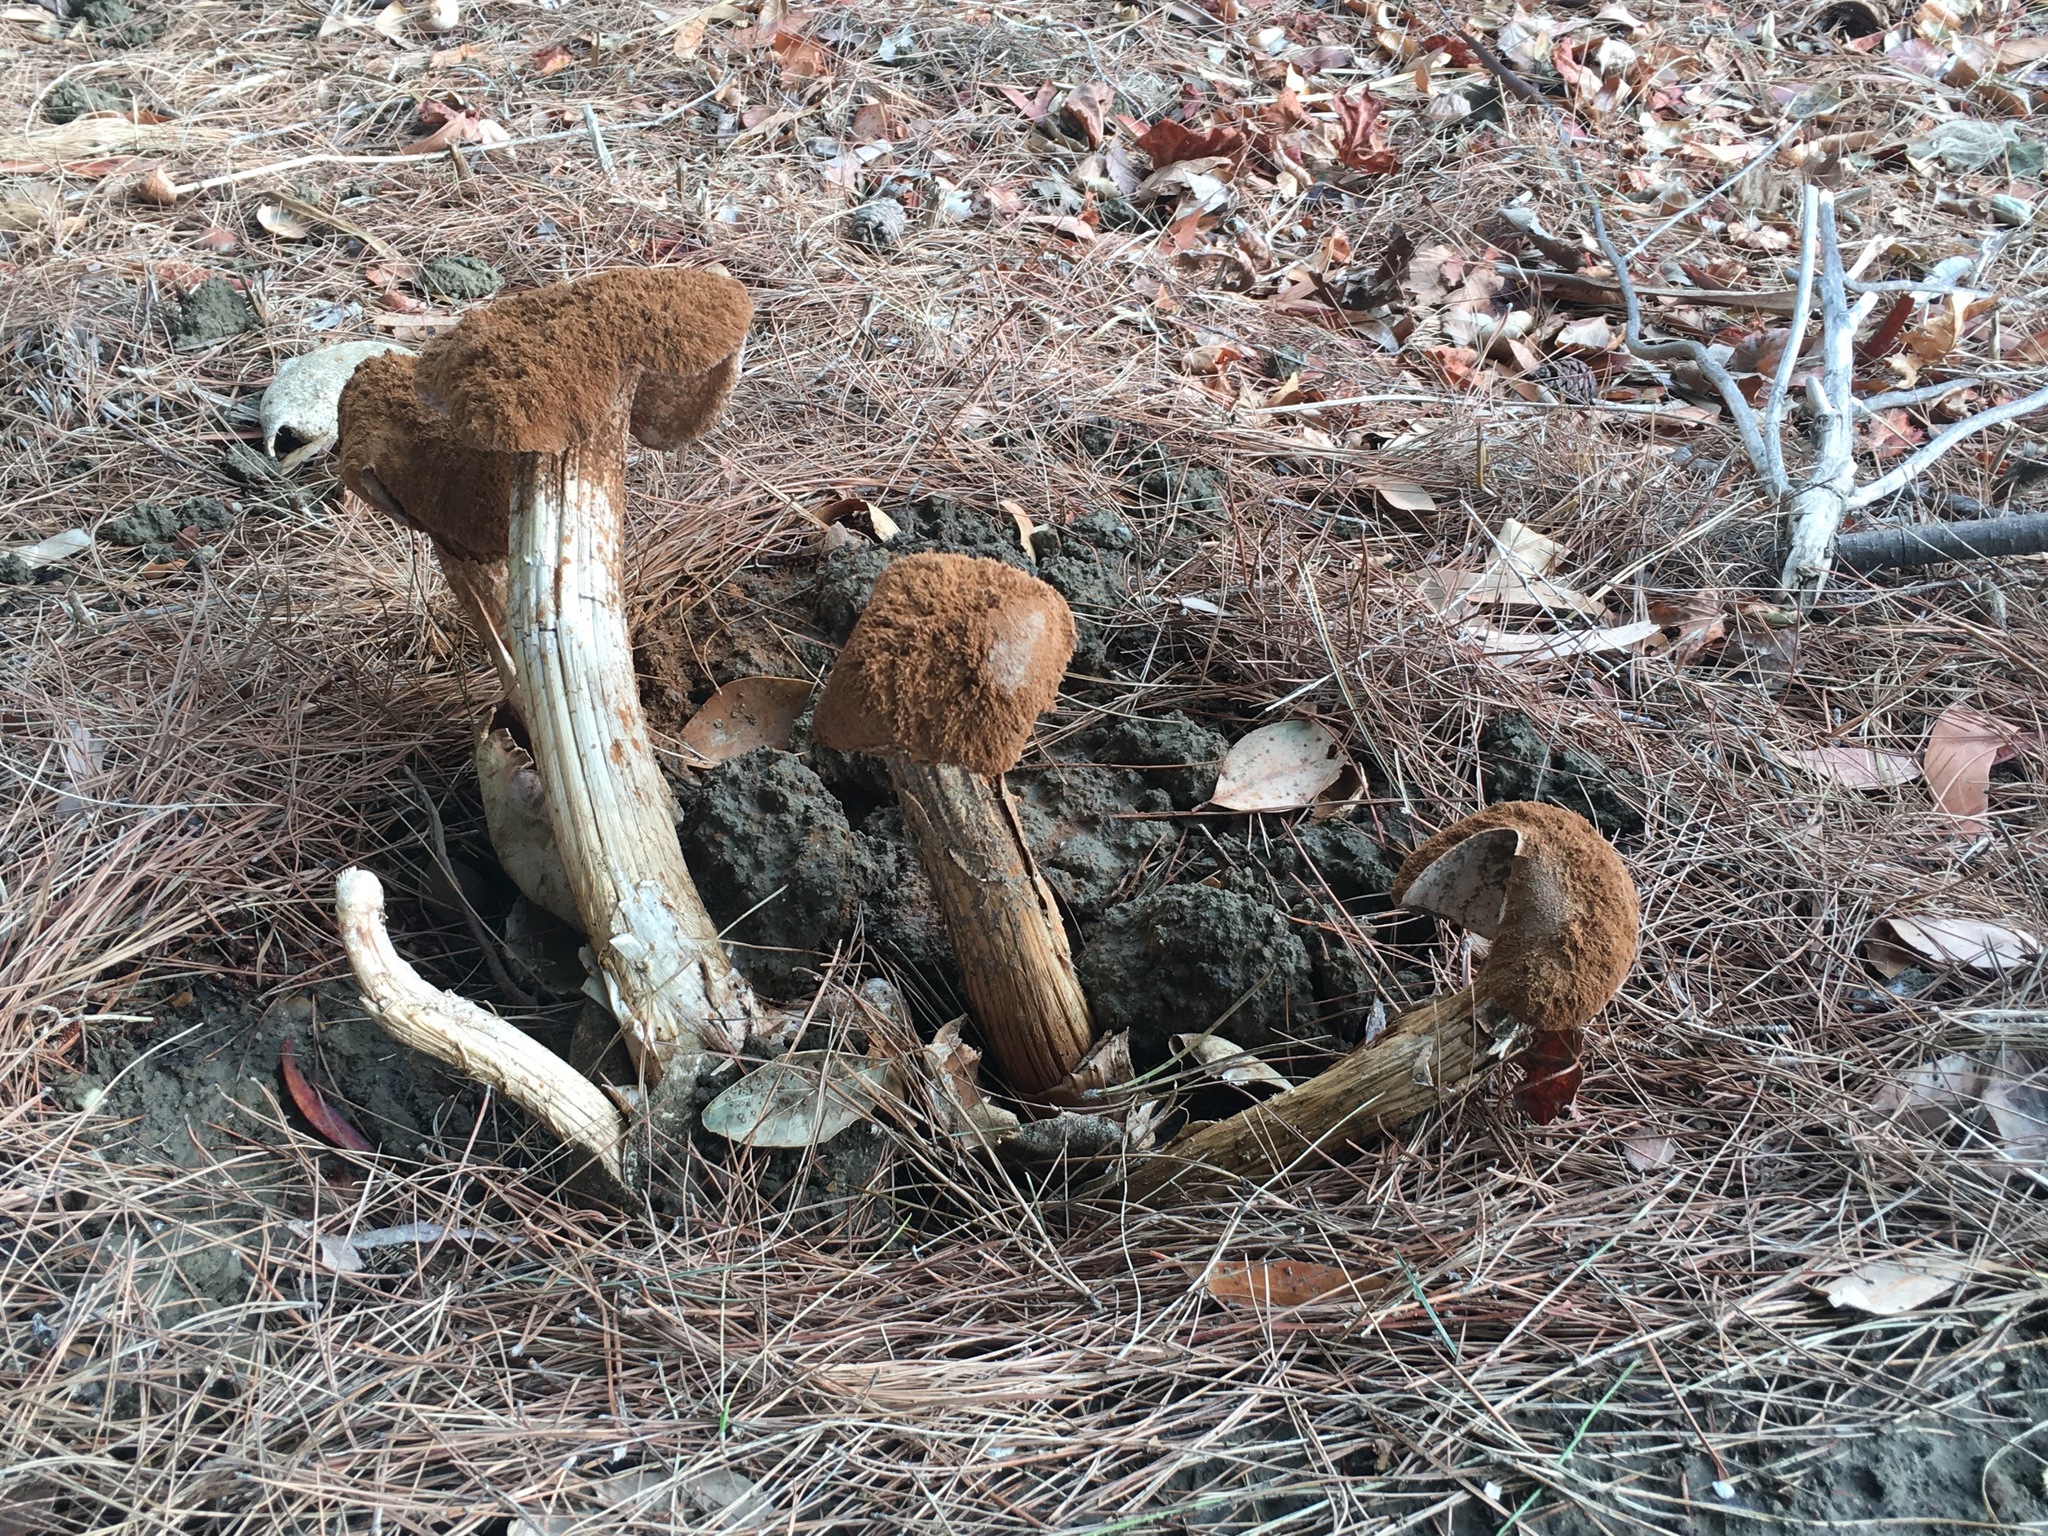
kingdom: Fungi
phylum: Basidiomycota
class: Agaricomycetes
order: Agaricales
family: Agaricaceae
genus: Battarrea
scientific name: Battarrea phalloides
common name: Sandy stiltball
